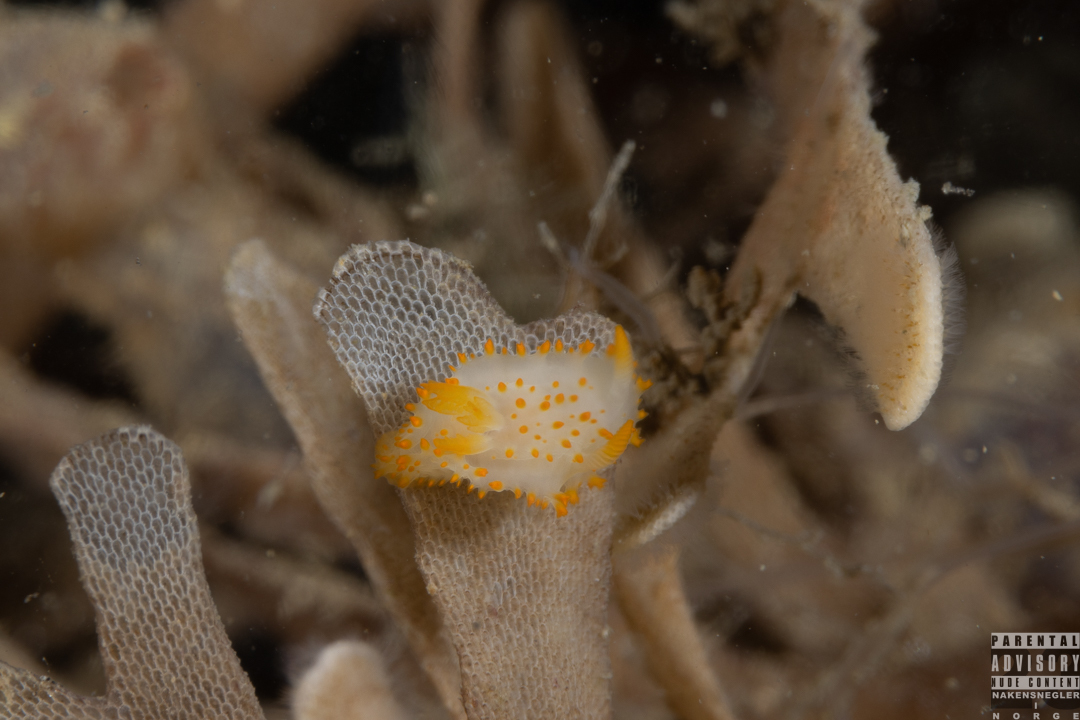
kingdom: Animalia
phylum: Mollusca
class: Gastropoda
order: Nudibranchia
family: Polyceridae
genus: Crimora
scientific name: Crimora papillata
